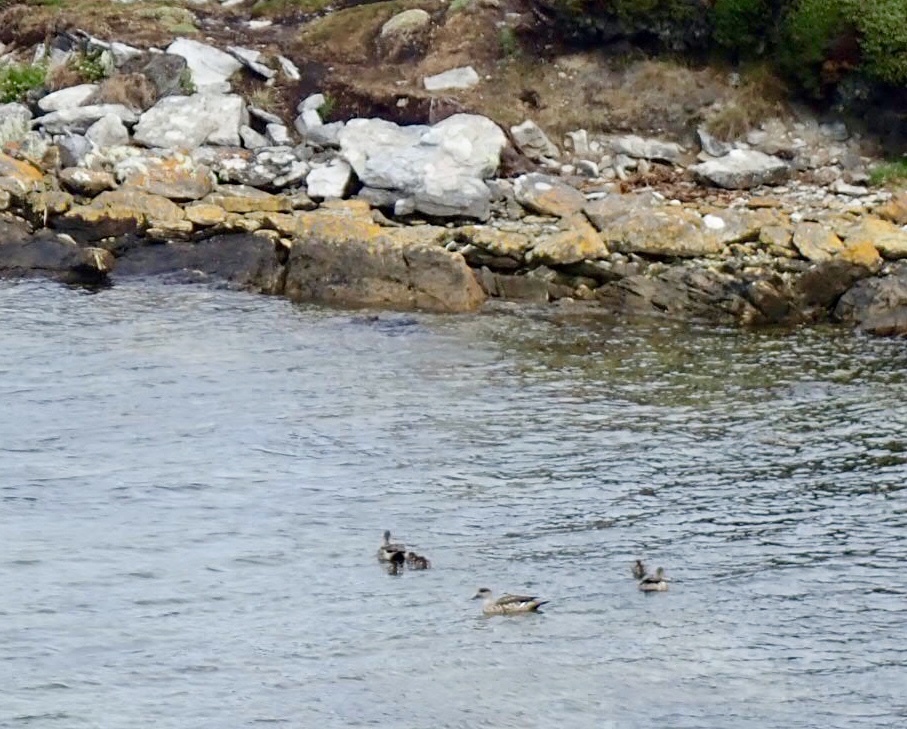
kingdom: Animalia
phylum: Chordata
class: Aves
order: Anseriformes
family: Anatidae
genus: Lophonetta
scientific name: Lophonetta specularioides
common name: Crested duck
